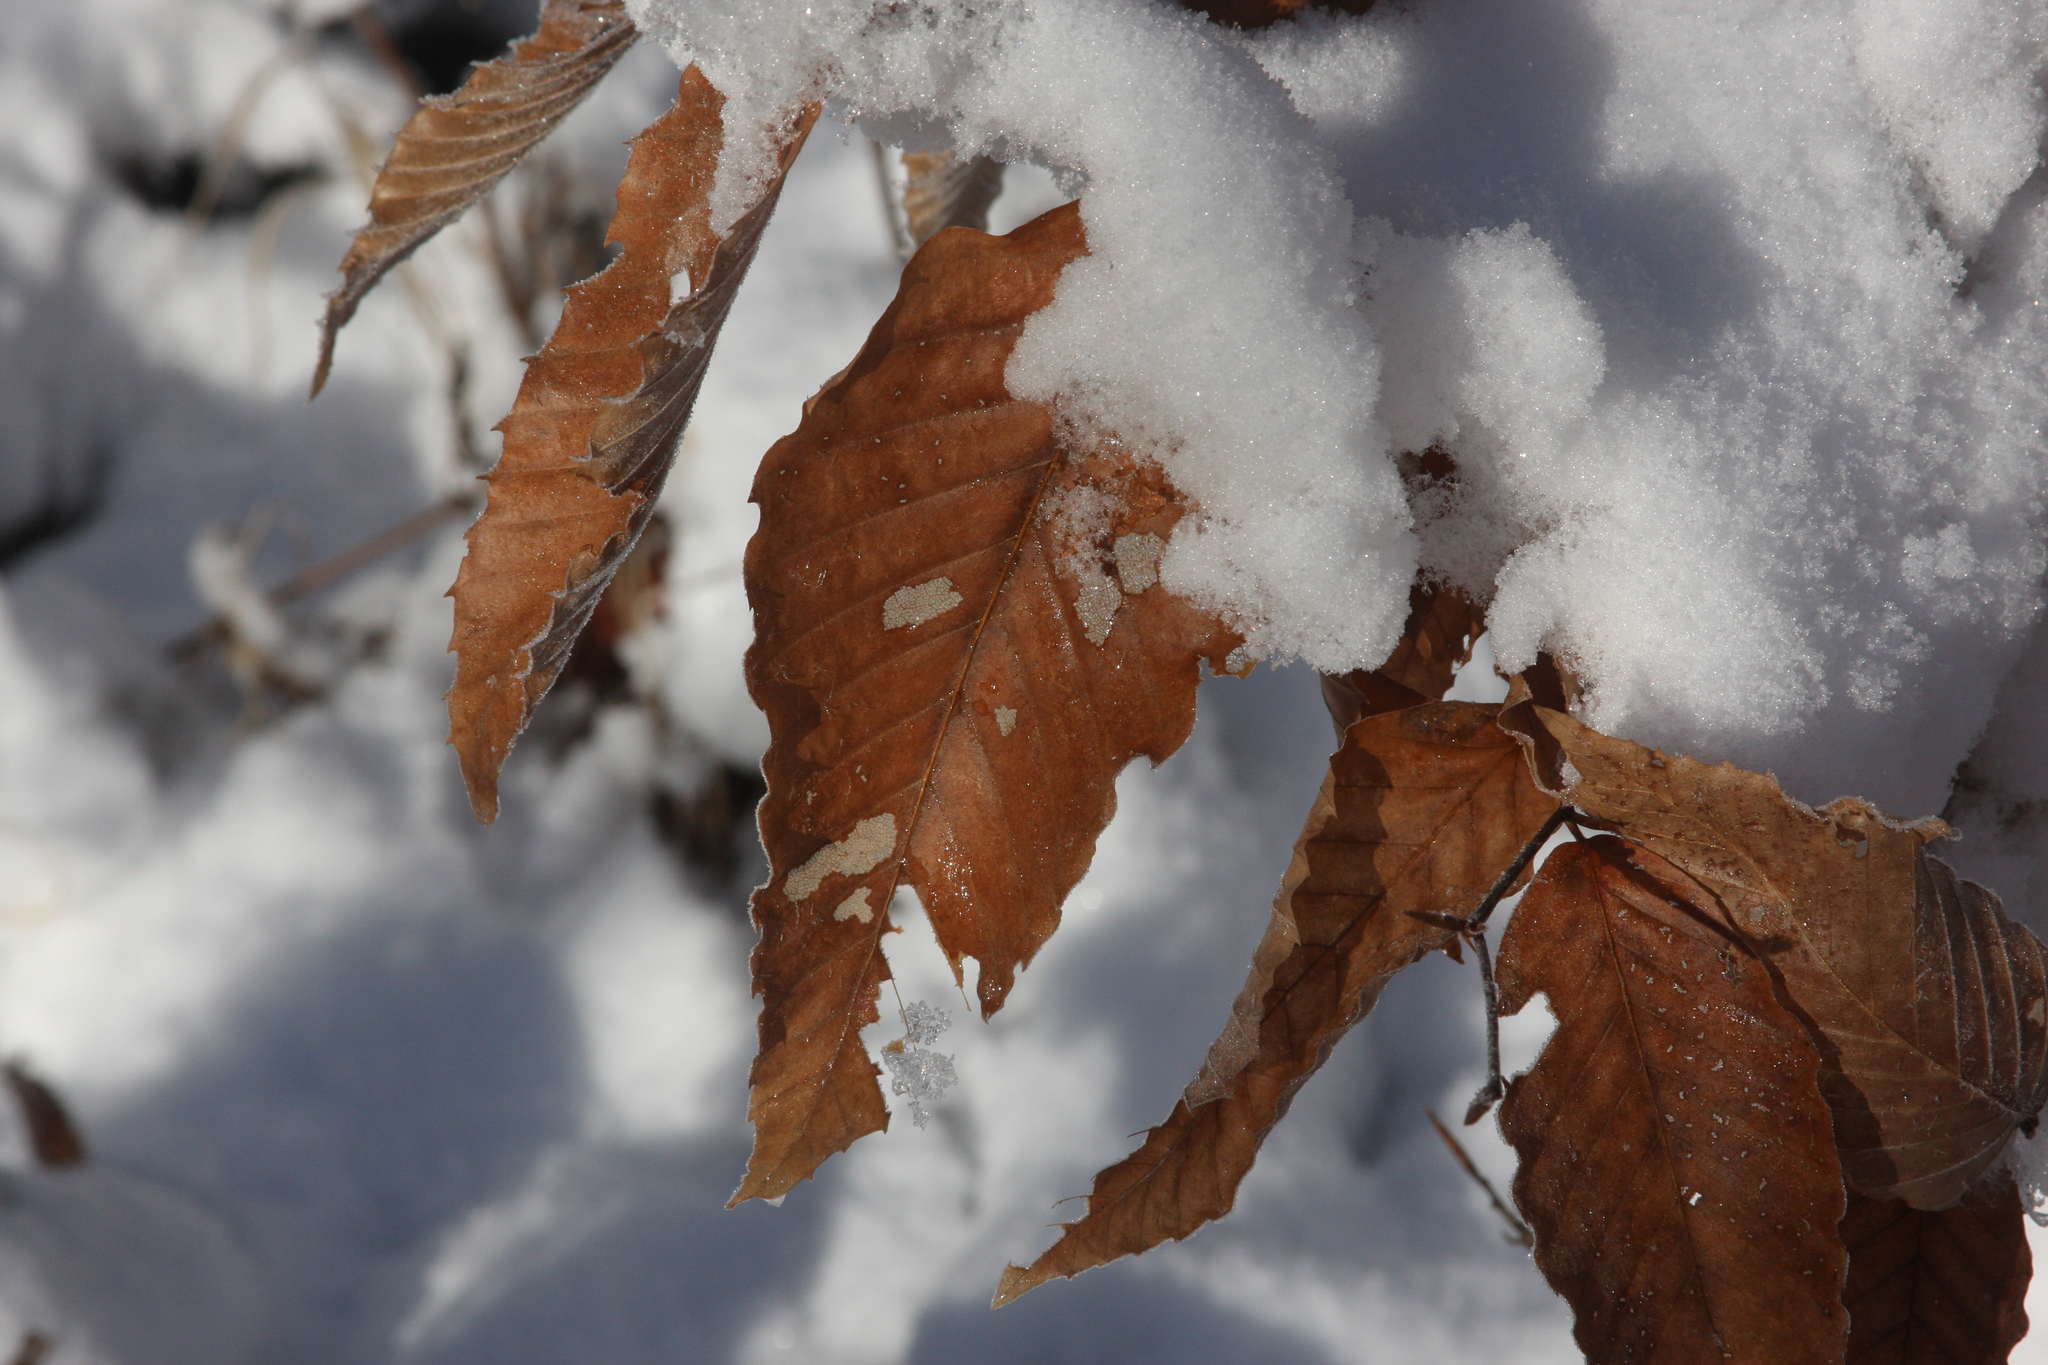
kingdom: Plantae
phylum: Tracheophyta
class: Magnoliopsida
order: Fagales
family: Fagaceae
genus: Fagus
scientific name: Fagus grandifolia
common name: American beech
